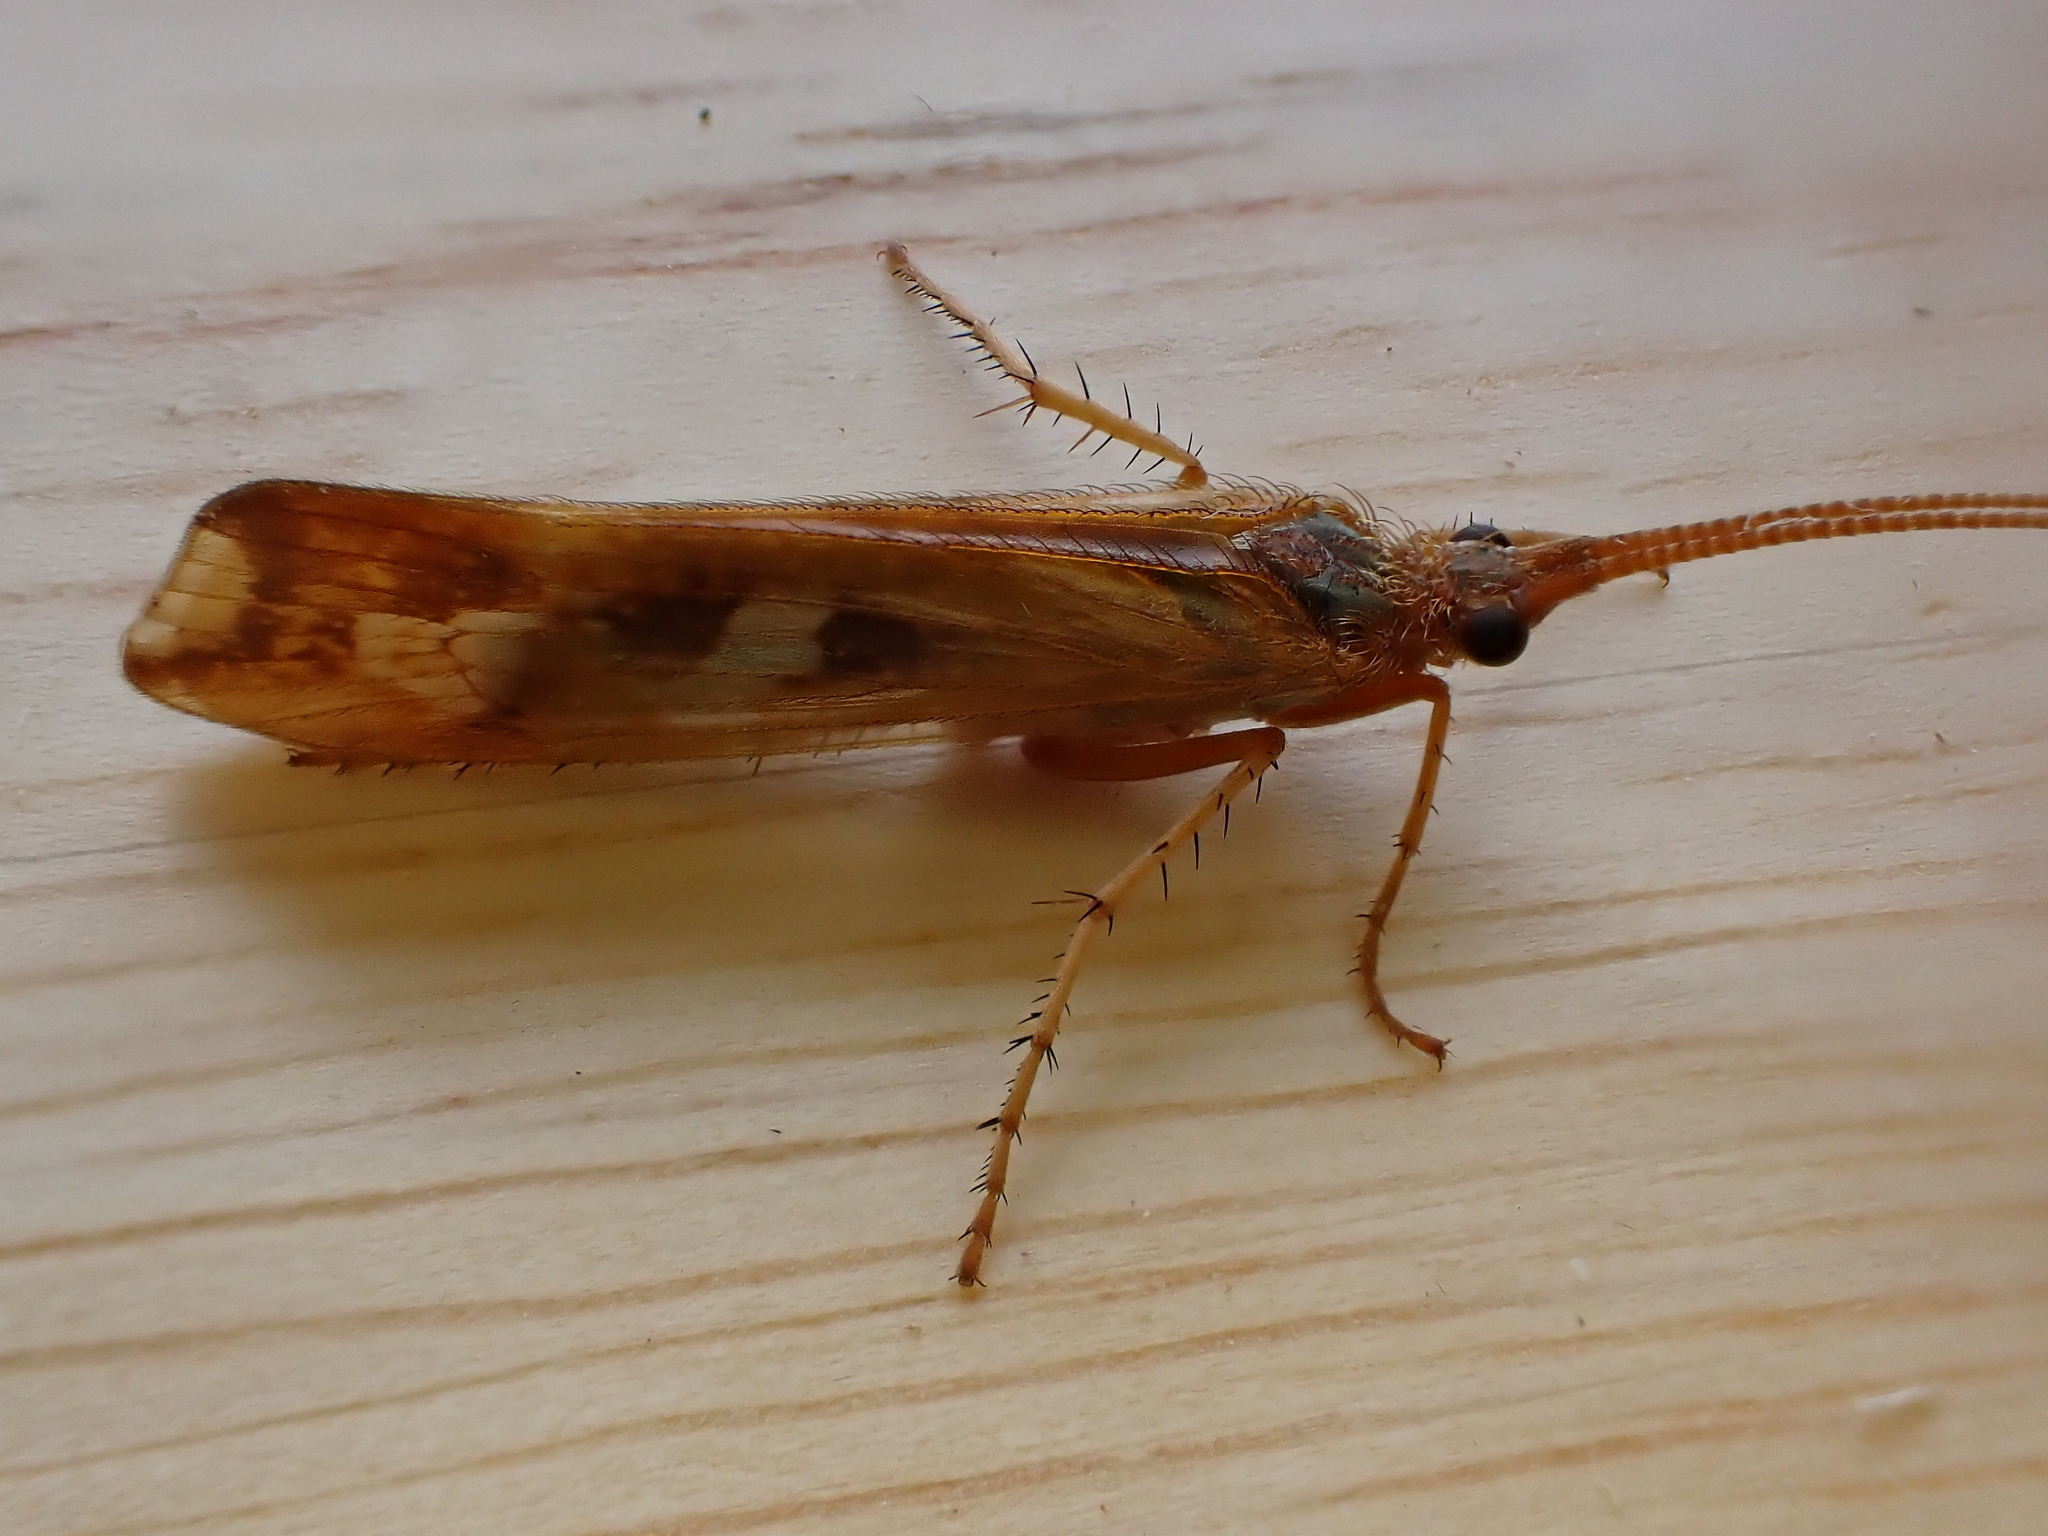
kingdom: Animalia
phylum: Arthropoda
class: Insecta
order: Trichoptera
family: Limnephilidae
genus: Limnephilus
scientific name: Limnephilus lunatus
